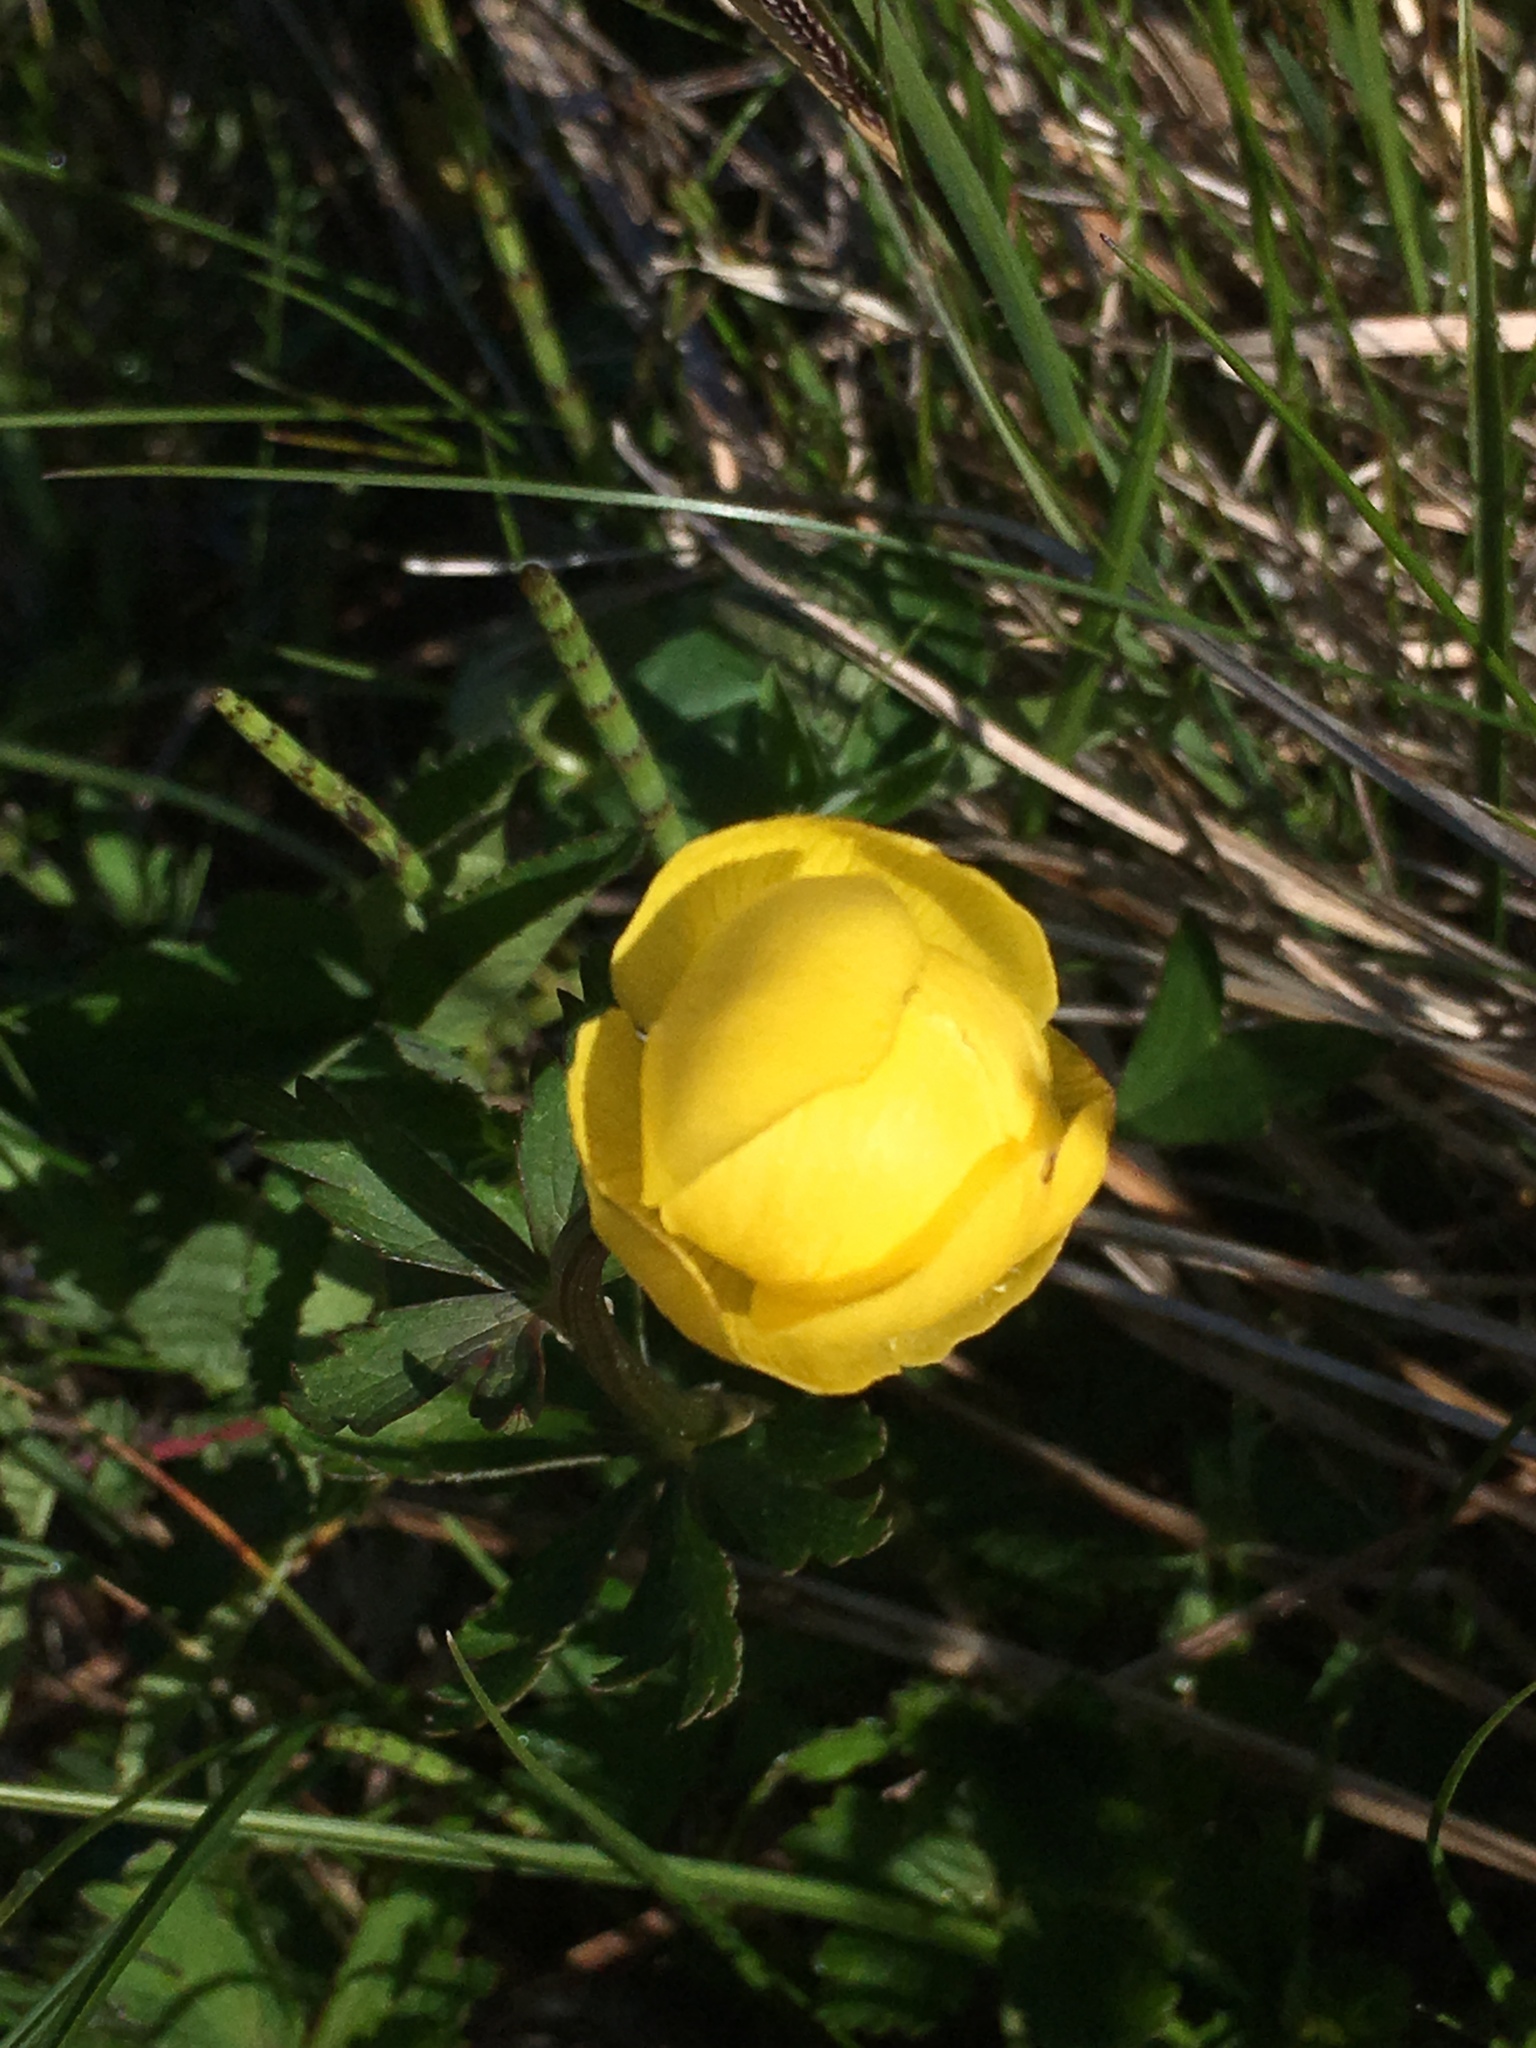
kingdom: Plantae
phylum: Tracheophyta
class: Magnoliopsida
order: Ranunculales
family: Ranunculaceae
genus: Trollius
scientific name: Trollius europaeus
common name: European globeflower
